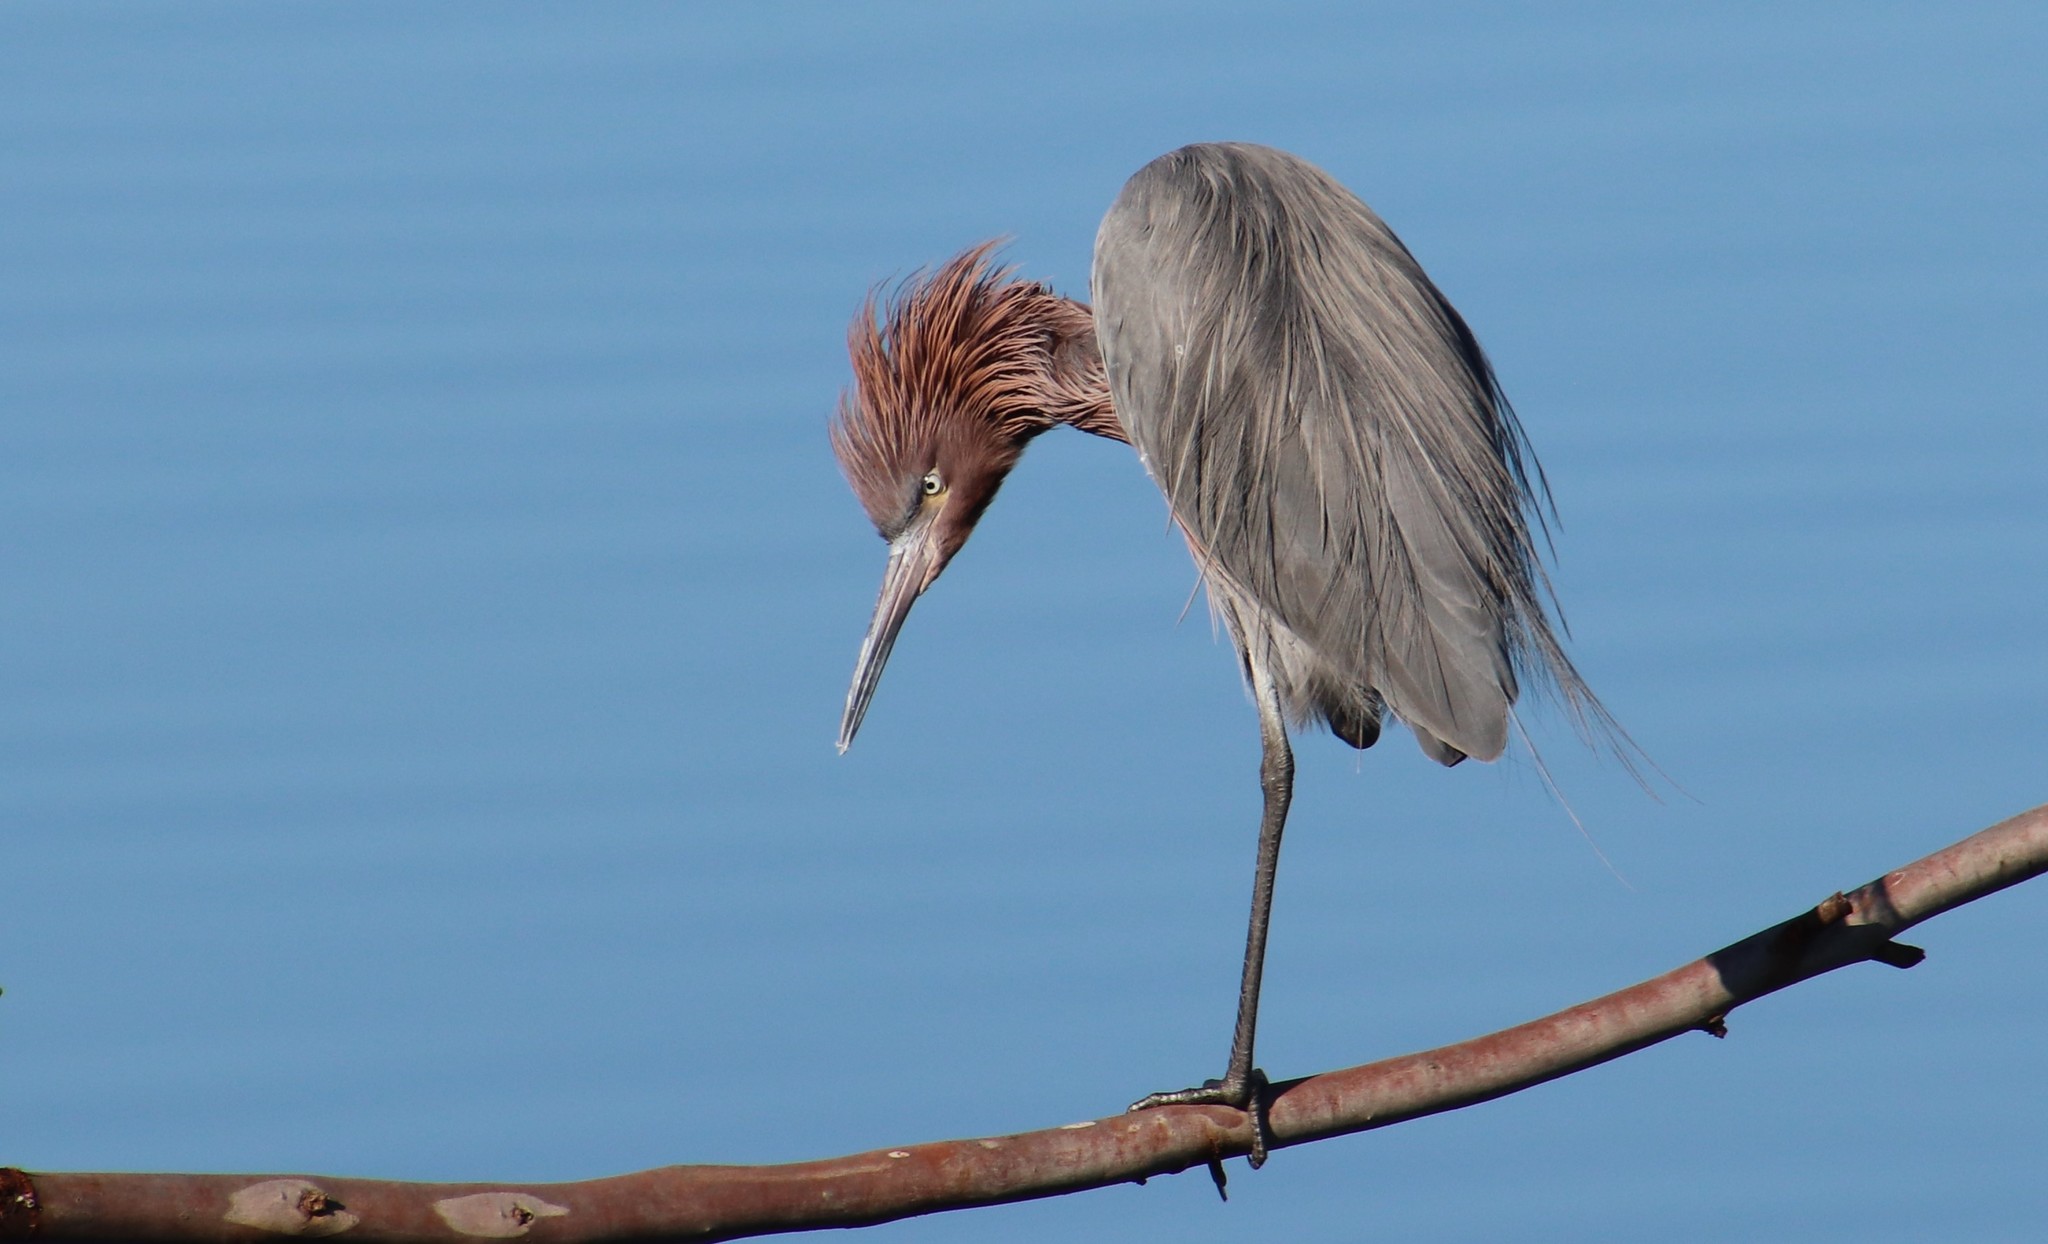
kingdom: Animalia
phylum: Chordata
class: Aves
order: Pelecaniformes
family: Ardeidae
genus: Egretta
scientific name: Egretta rufescens
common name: Reddish egret
